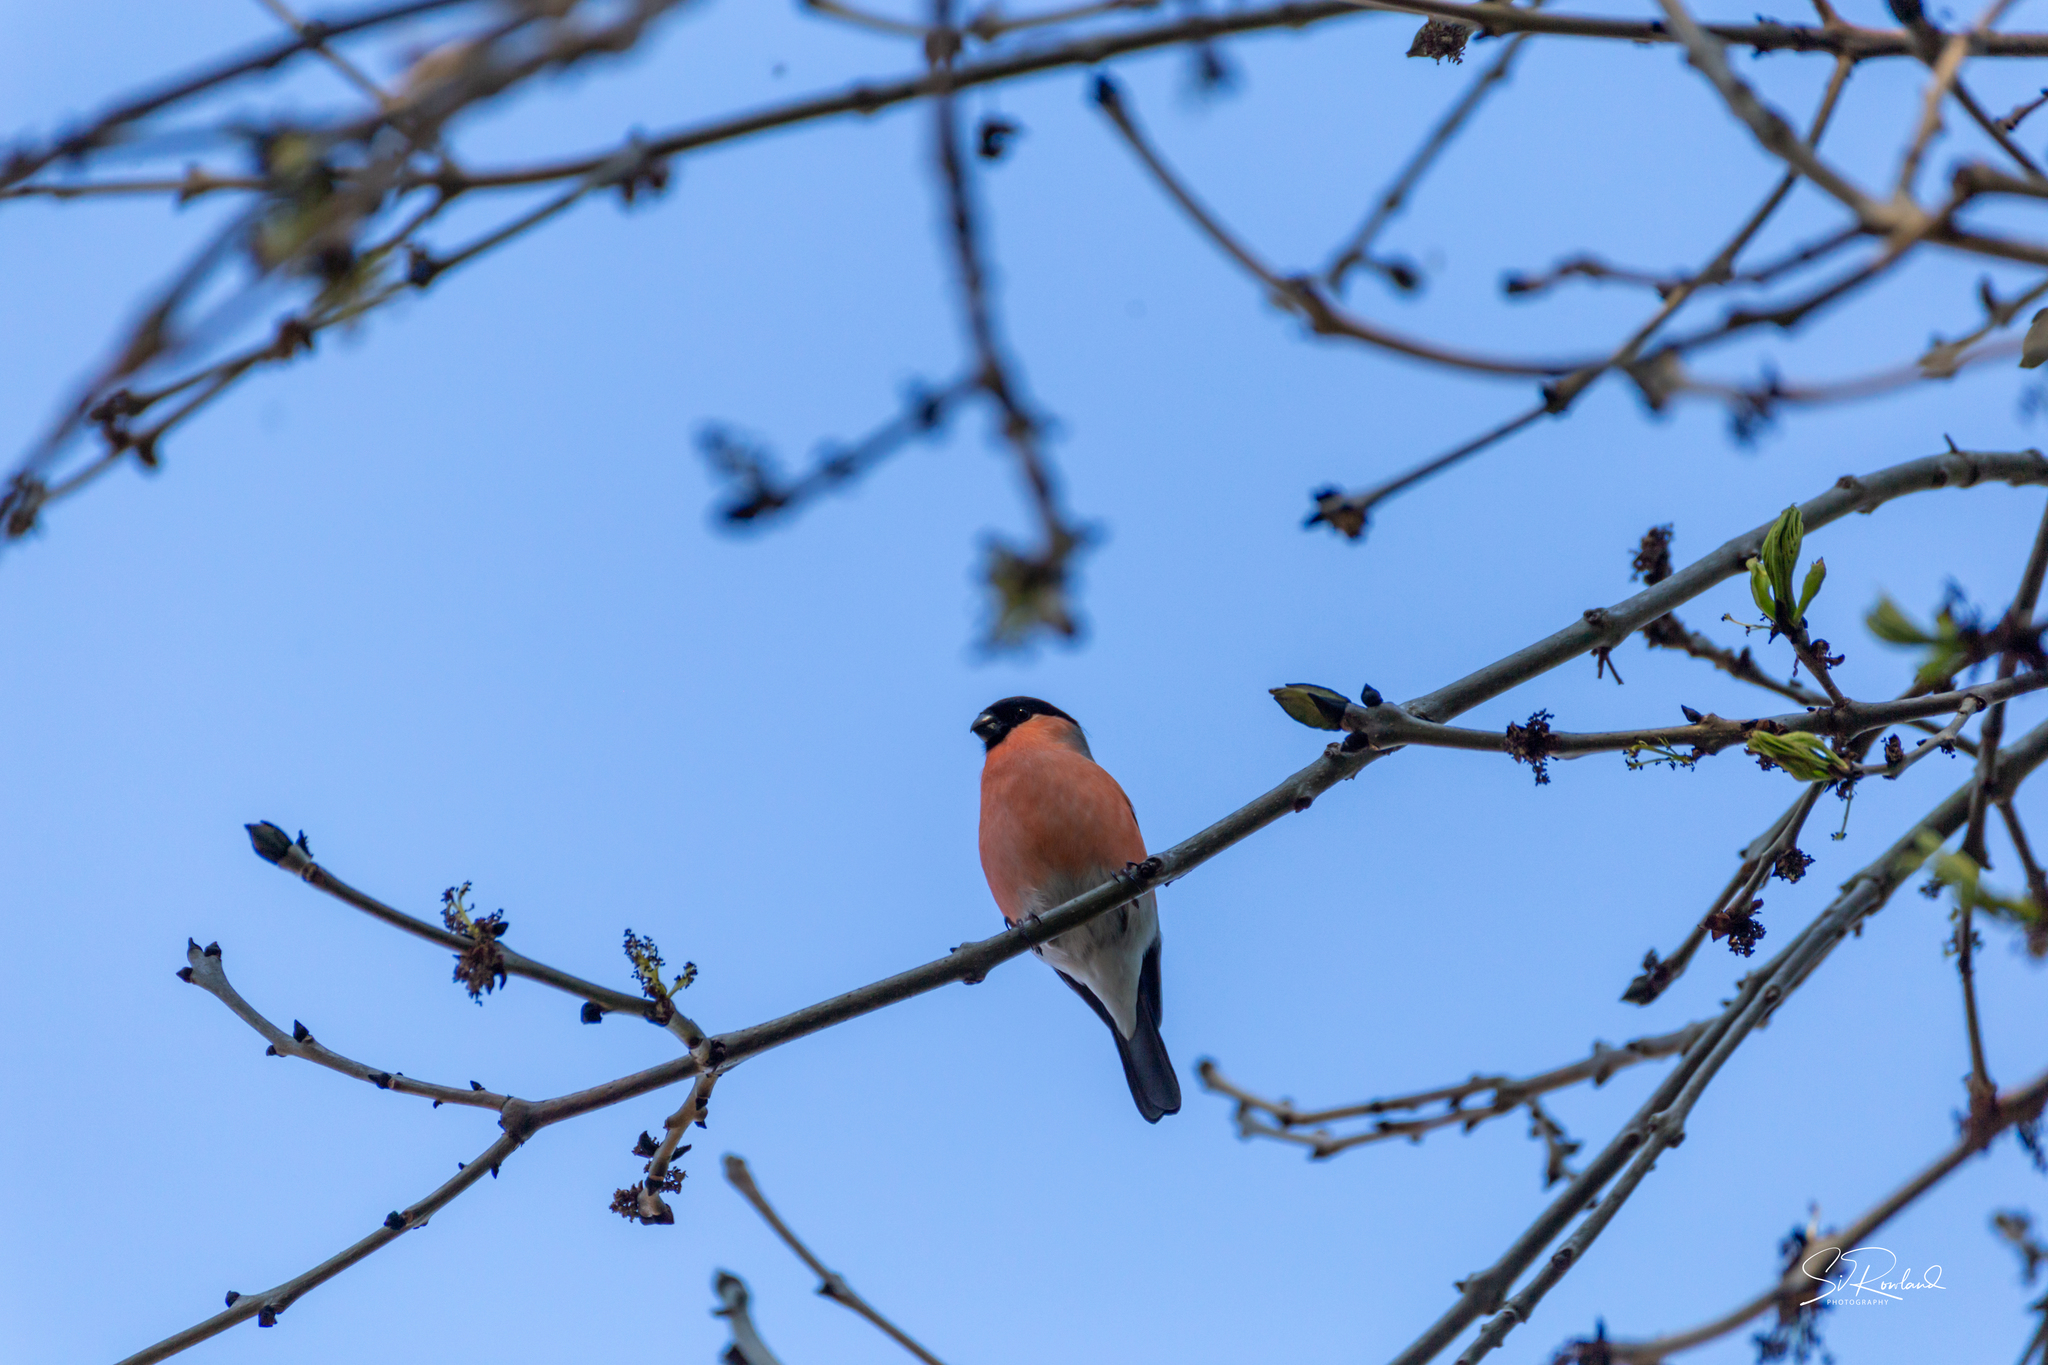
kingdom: Animalia
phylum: Chordata
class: Aves
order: Passeriformes
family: Fringillidae
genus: Pyrrhula
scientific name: Pyrrhula pyrrhula
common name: Eurasian bullfinch
